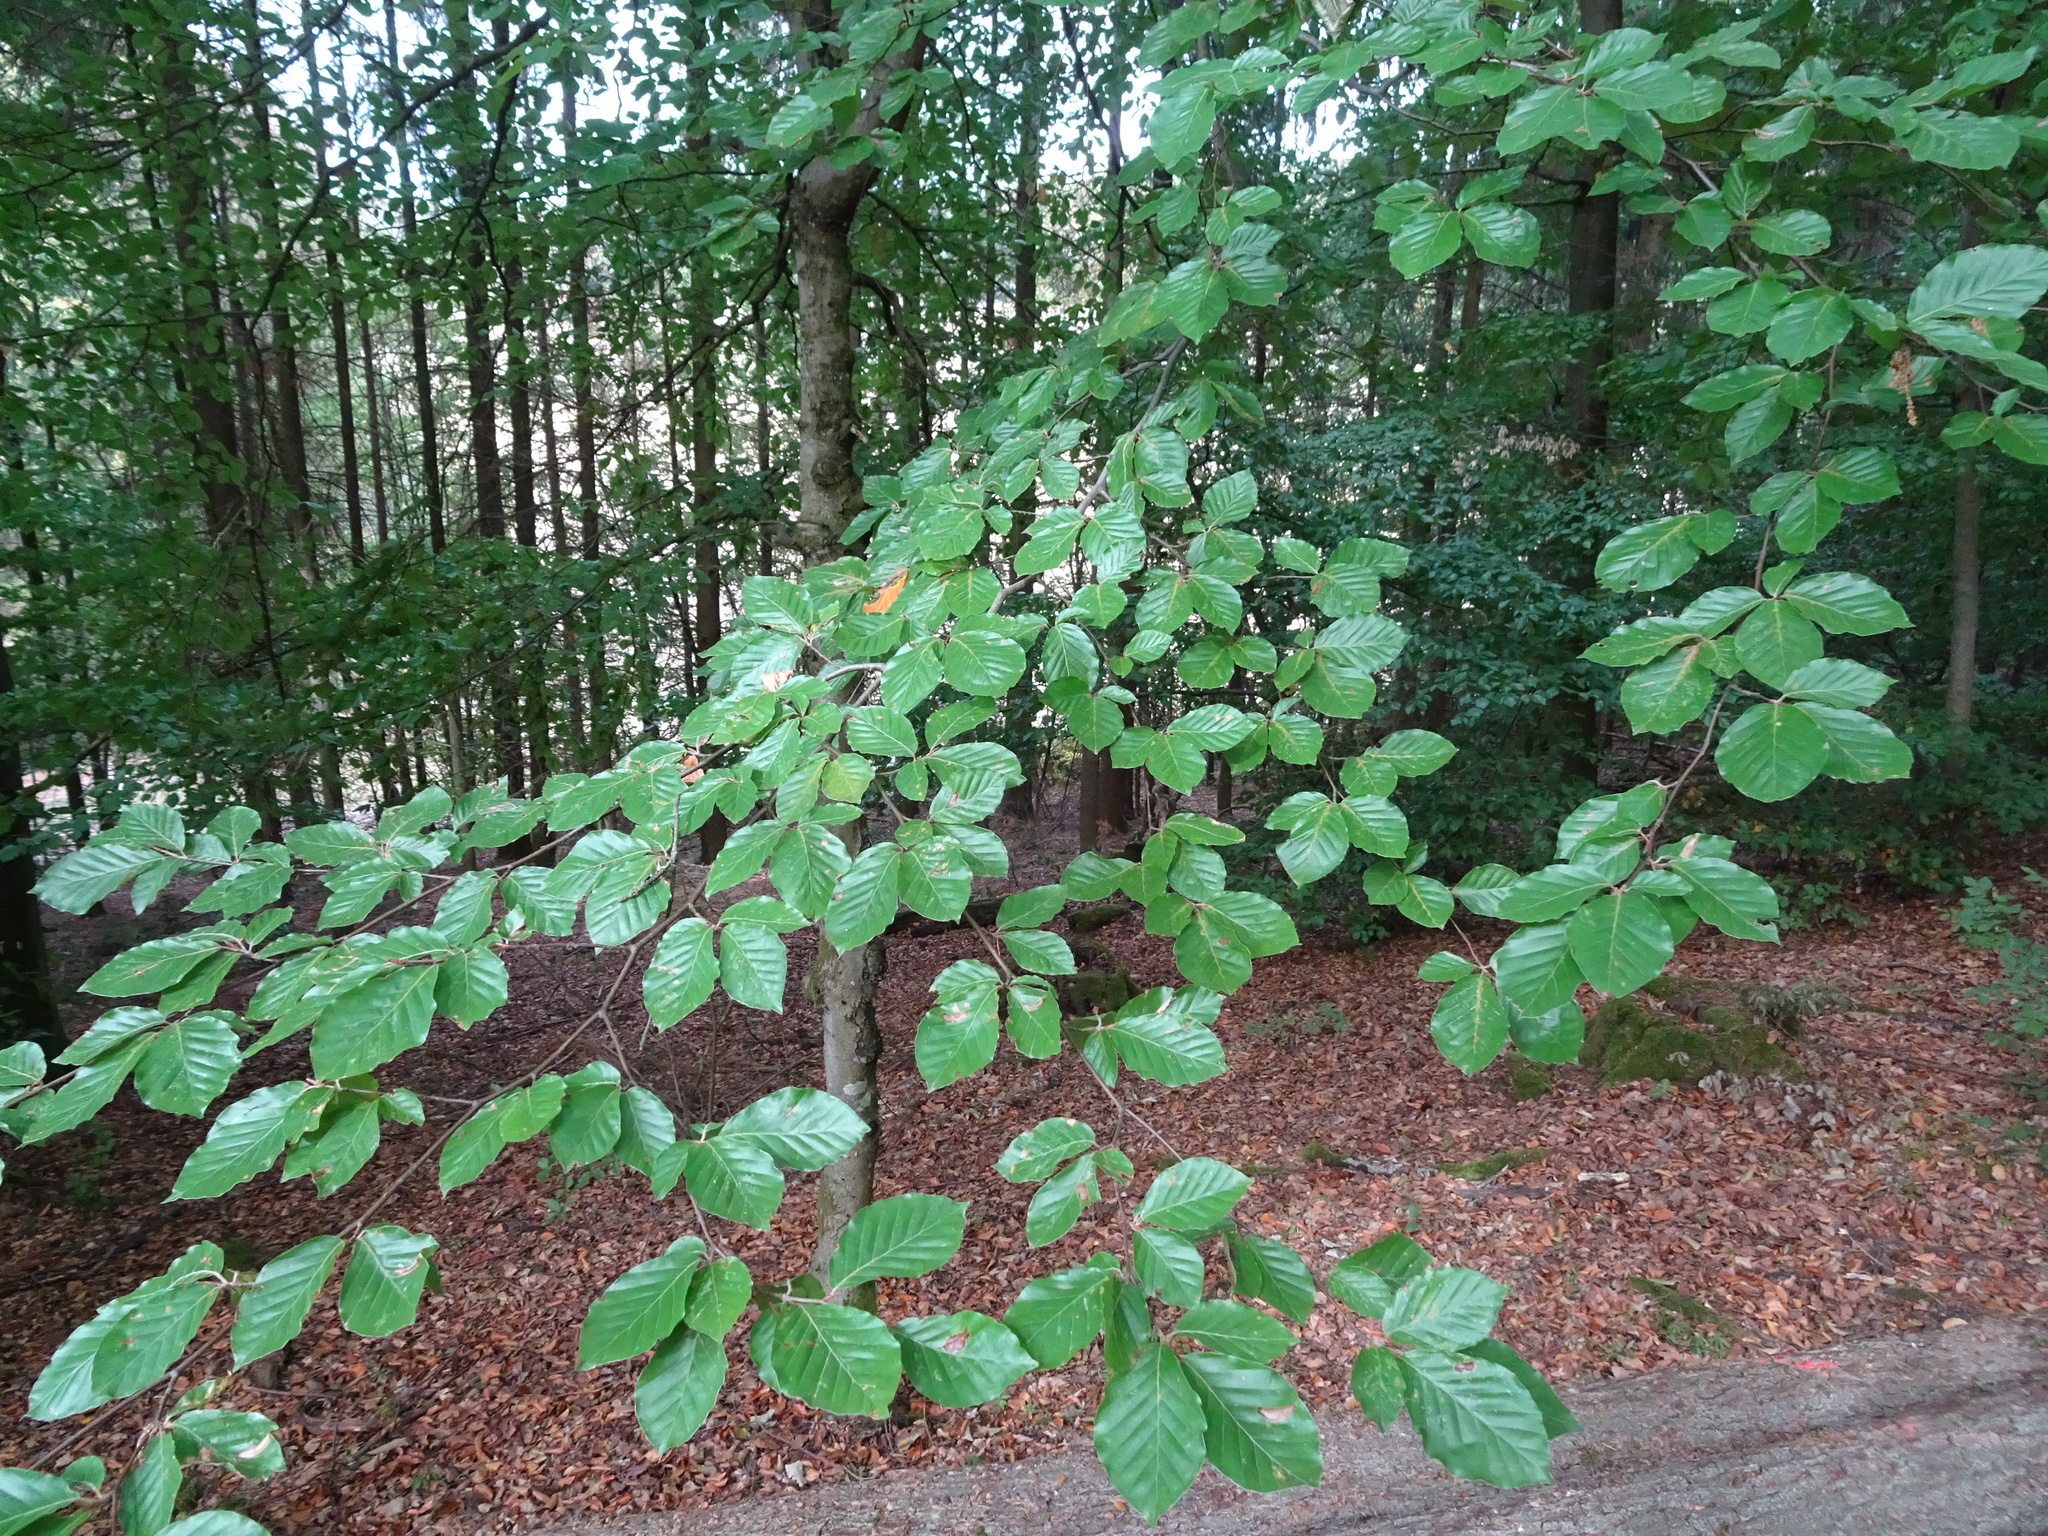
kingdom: Plantae
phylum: Tracheophyta
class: Magnoliopsida
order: Fagales
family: Fagaceae
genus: Fagus
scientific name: Fagus sylvatica
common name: Beech
